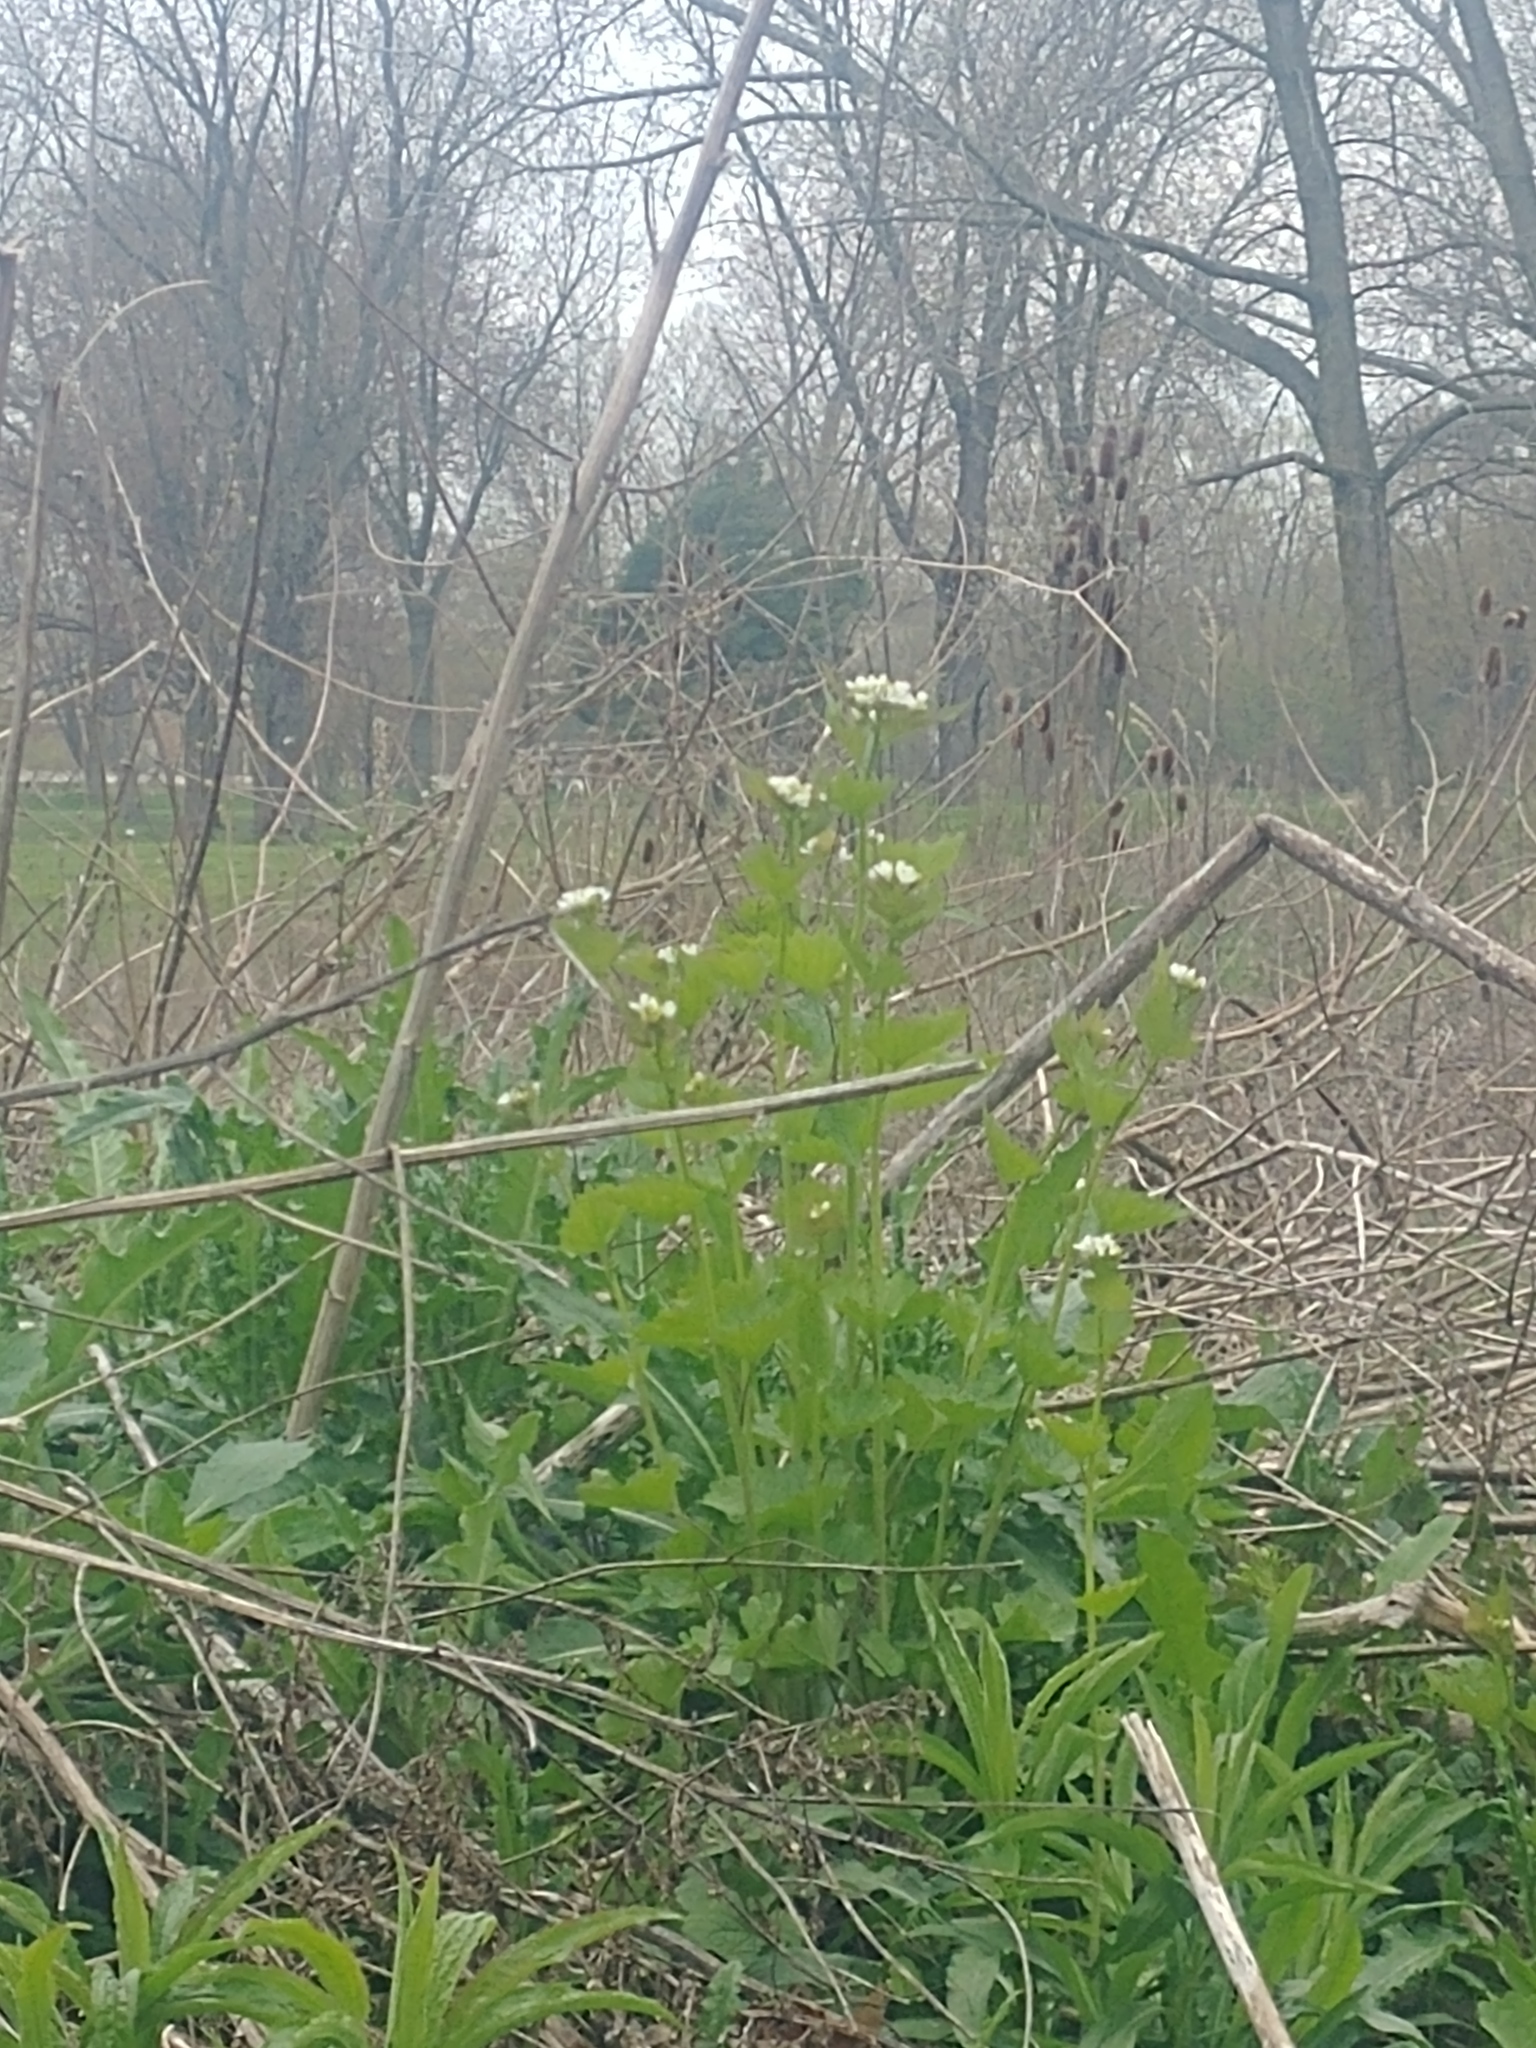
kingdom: Plantae
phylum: Tracheophyta
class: Magnoliopsida
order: Brassicales
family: Brassicaceae
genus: Alliaria
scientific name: Alliaria petiolata
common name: Garlic mustard
